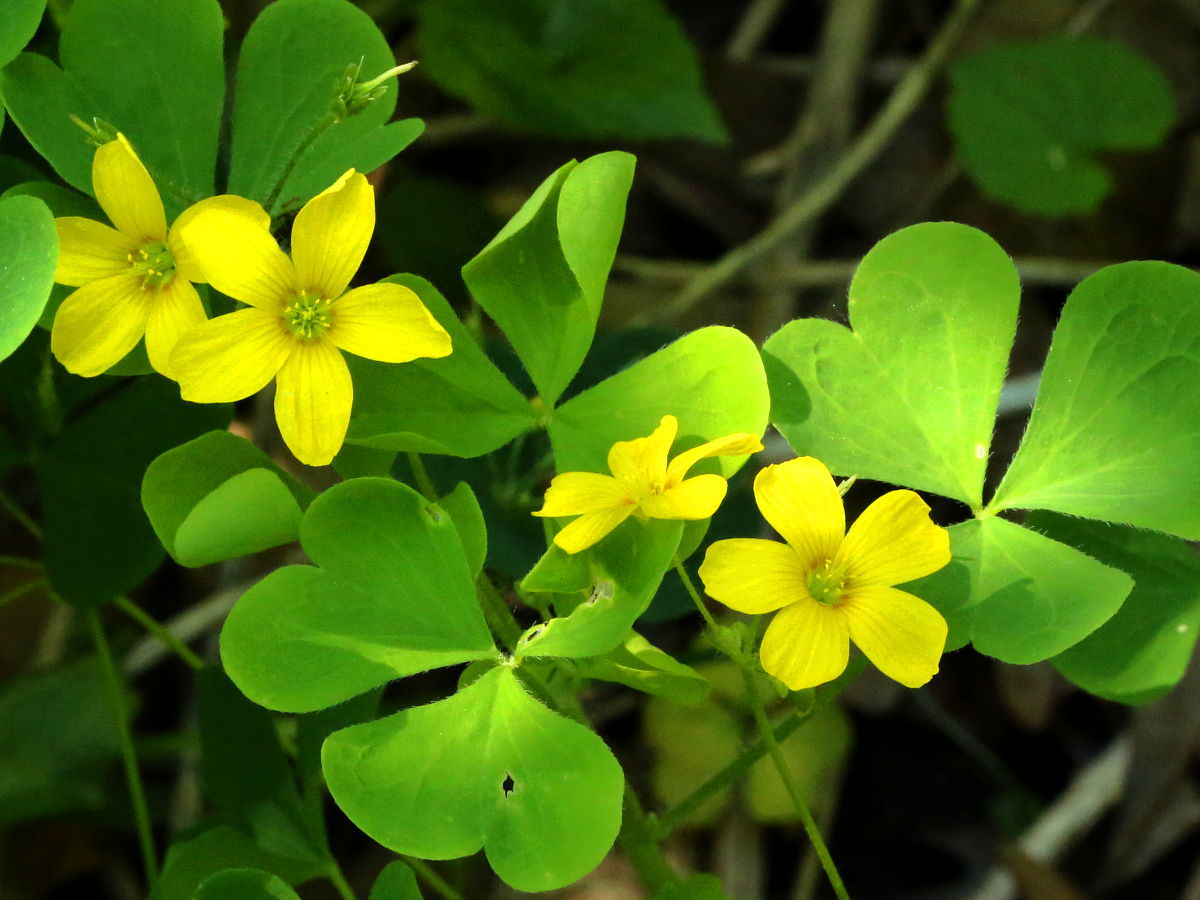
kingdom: Plantae
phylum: Tracheophyta
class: Magnoliopsida
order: Oxalidales
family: Oxalidaceae
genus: Oxalis
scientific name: Oxalis stricta
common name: Upright yellow-sorrel
